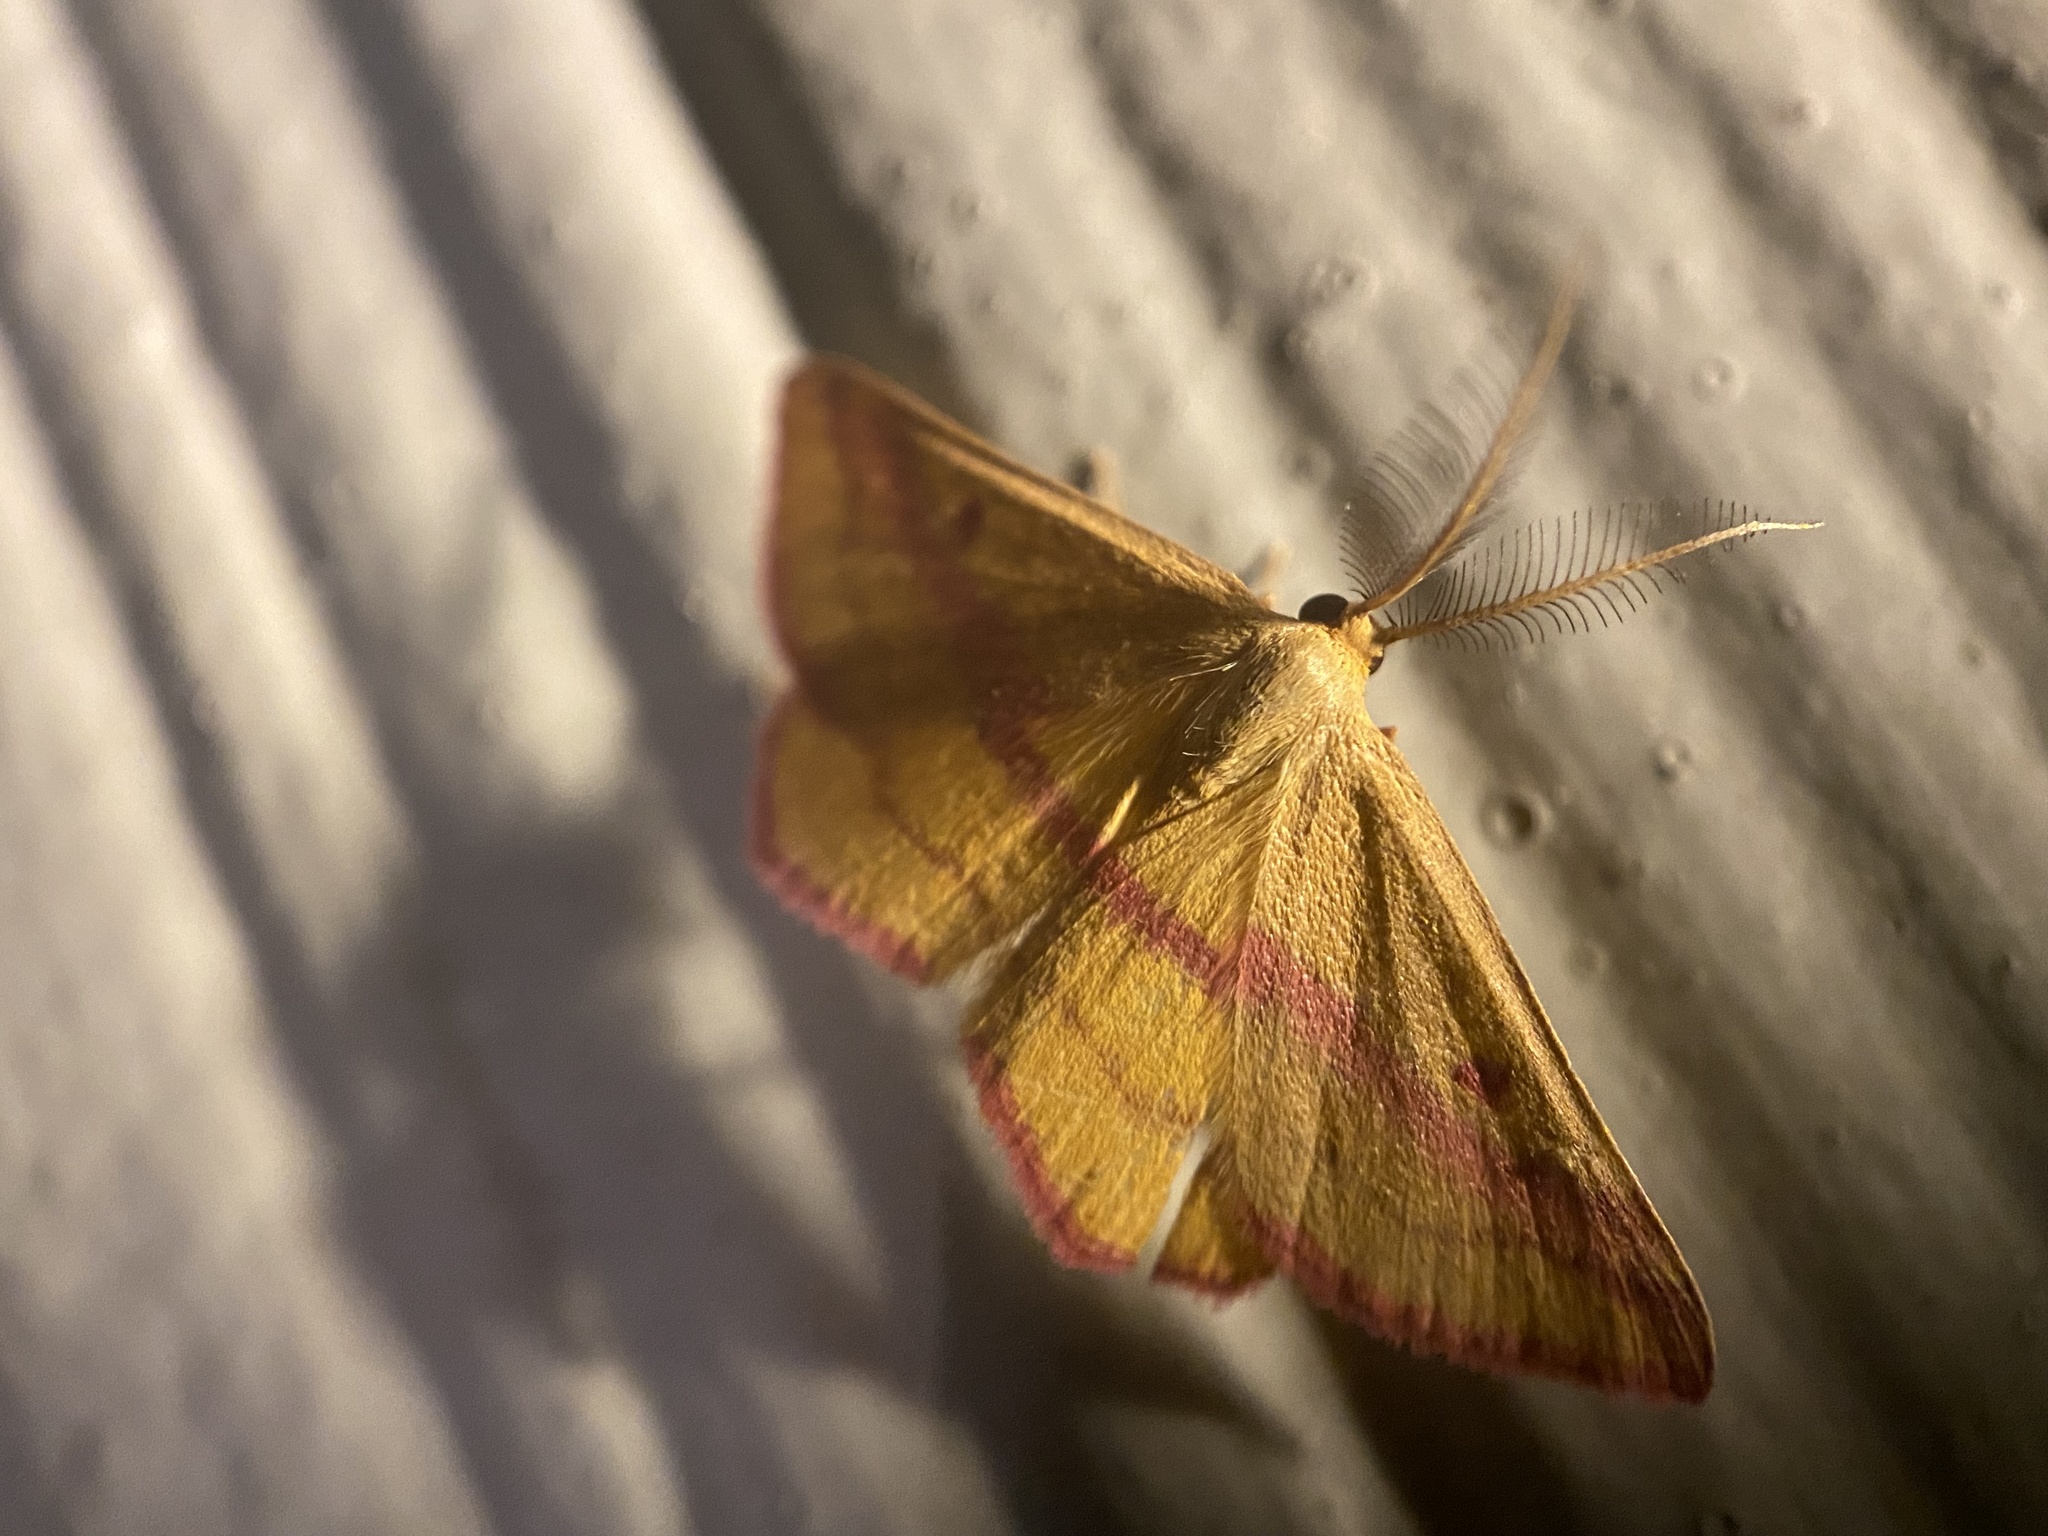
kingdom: Animalia
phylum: Arthropoda
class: Insecta
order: Lepidoptera
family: Geometridae
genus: Haematopis
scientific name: Haematopis grataria
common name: Chickweed geometer
